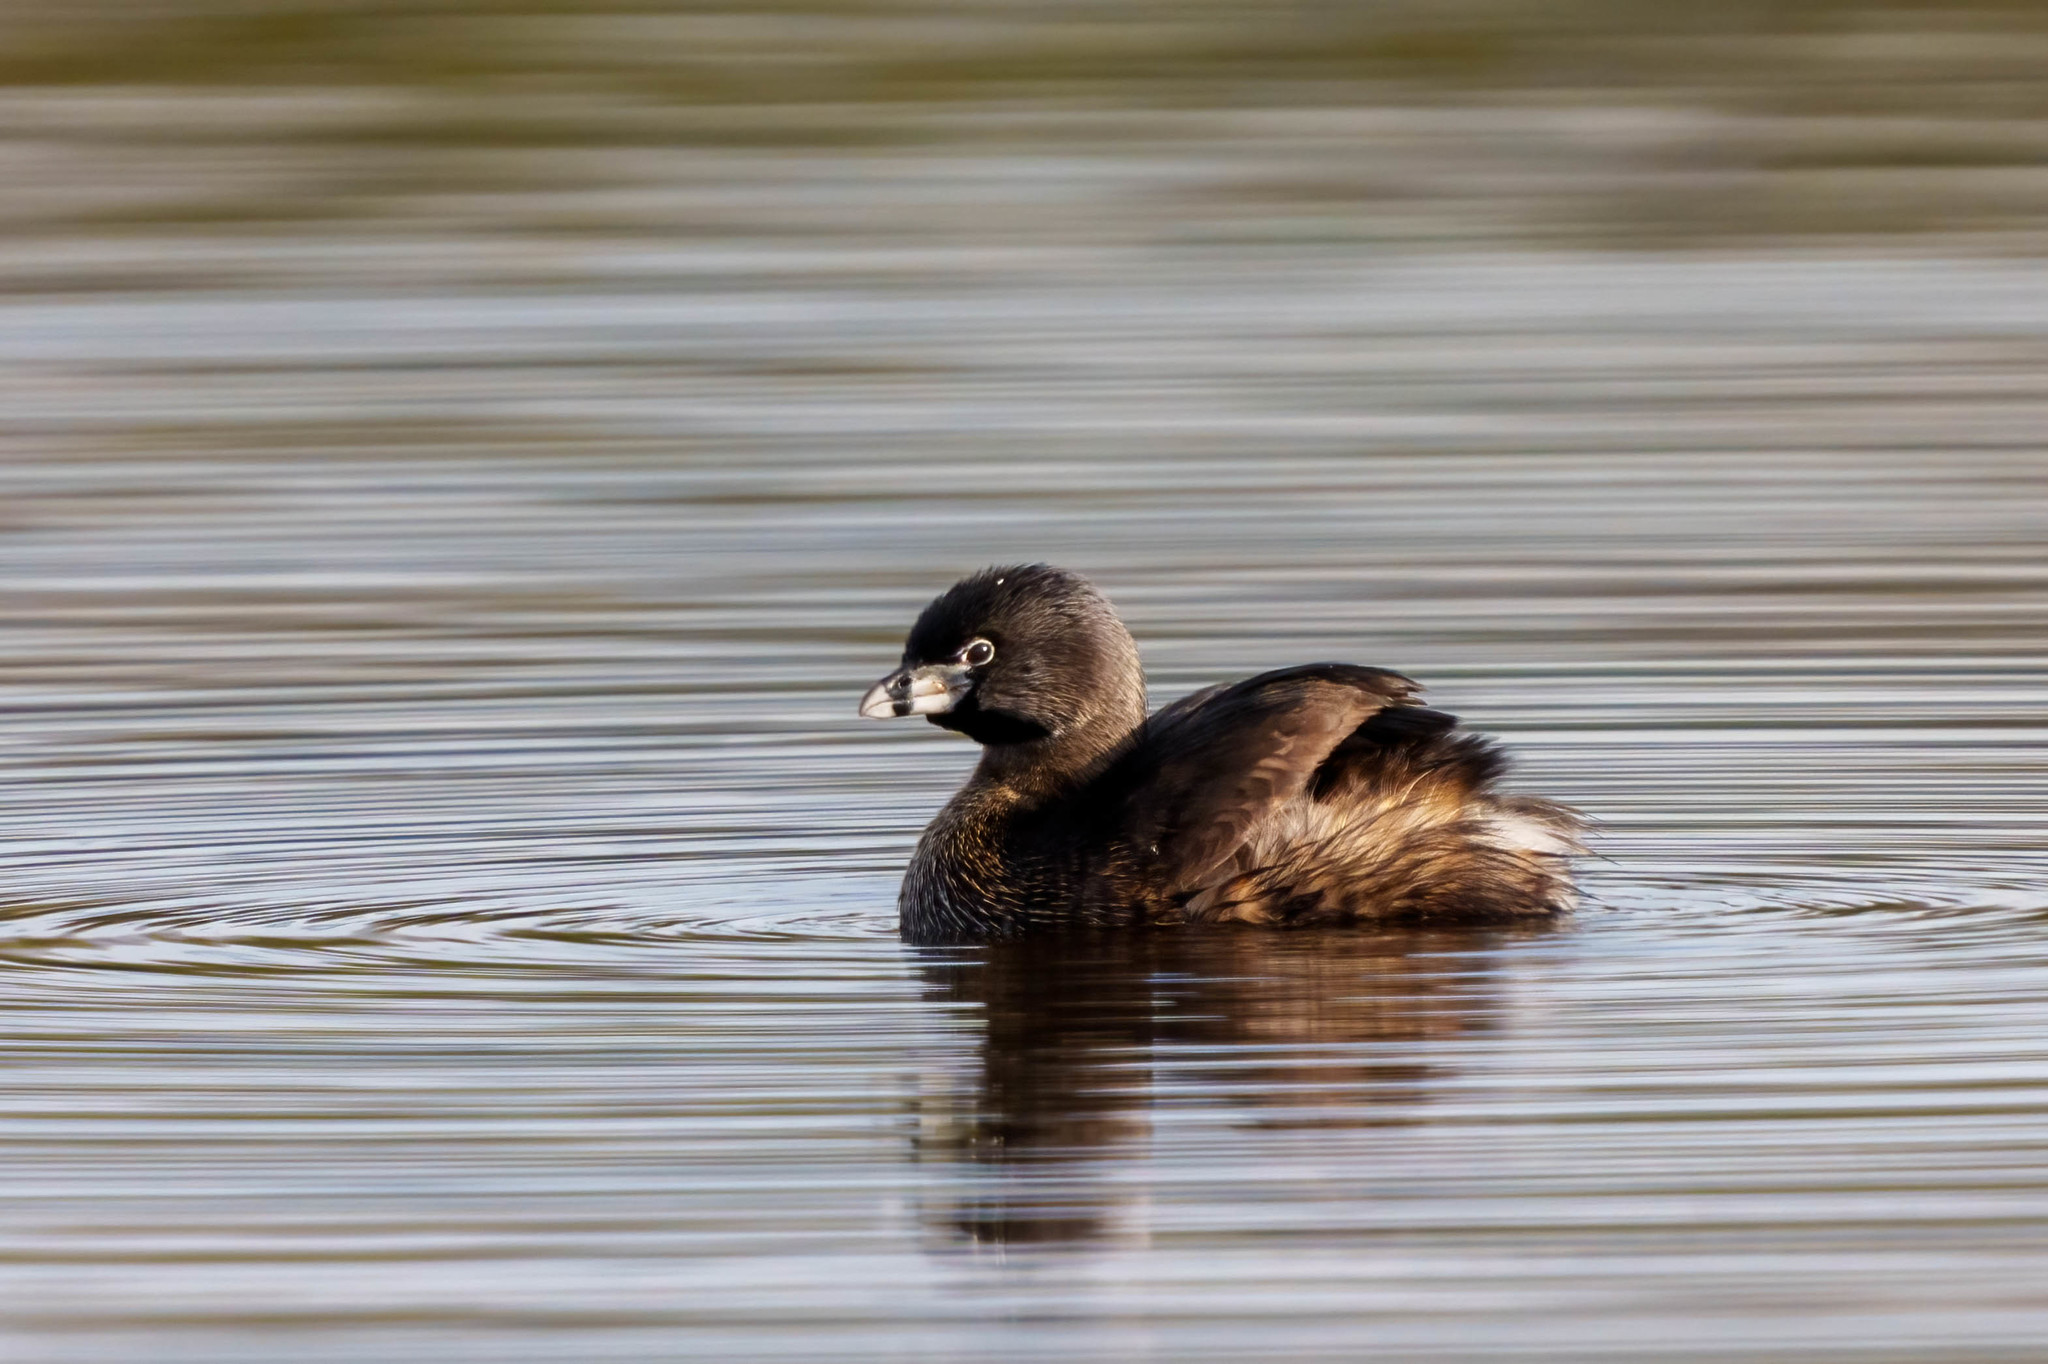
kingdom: Animalia
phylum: Chordata
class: Aves
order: Podicipediformes
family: Podicipedidae
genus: Podilymbus
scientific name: Podilymbus podiceps
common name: Pied-billed grebe
